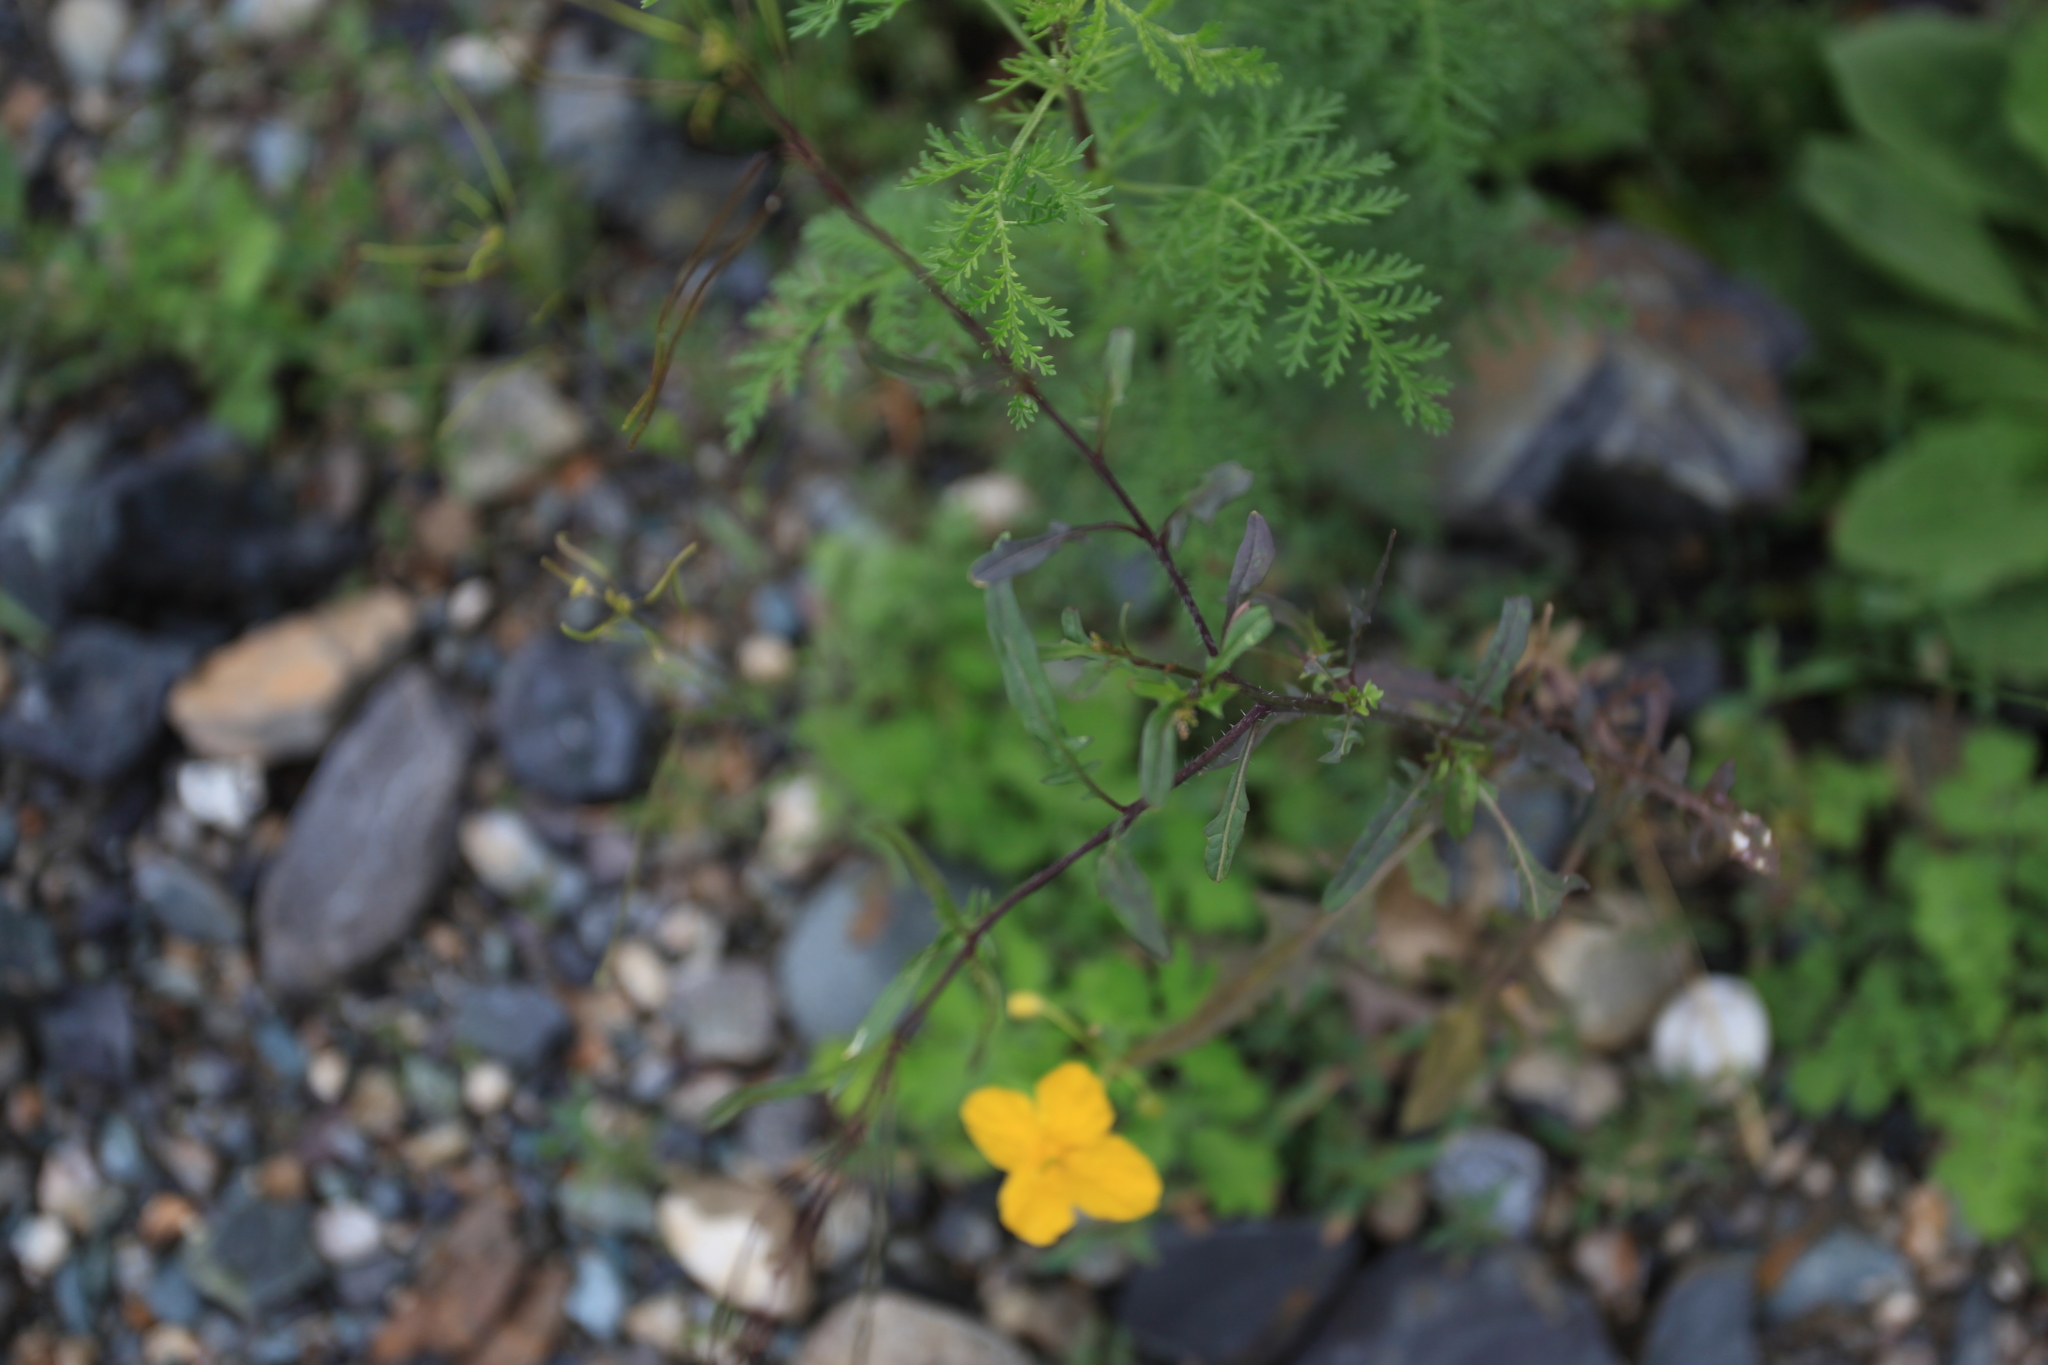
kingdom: Plantae
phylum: Tracheophyta
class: Magnoliopsida
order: Brassicales
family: Brassicaceae
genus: Sisymbrium
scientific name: Sisymbrium heteromallum
